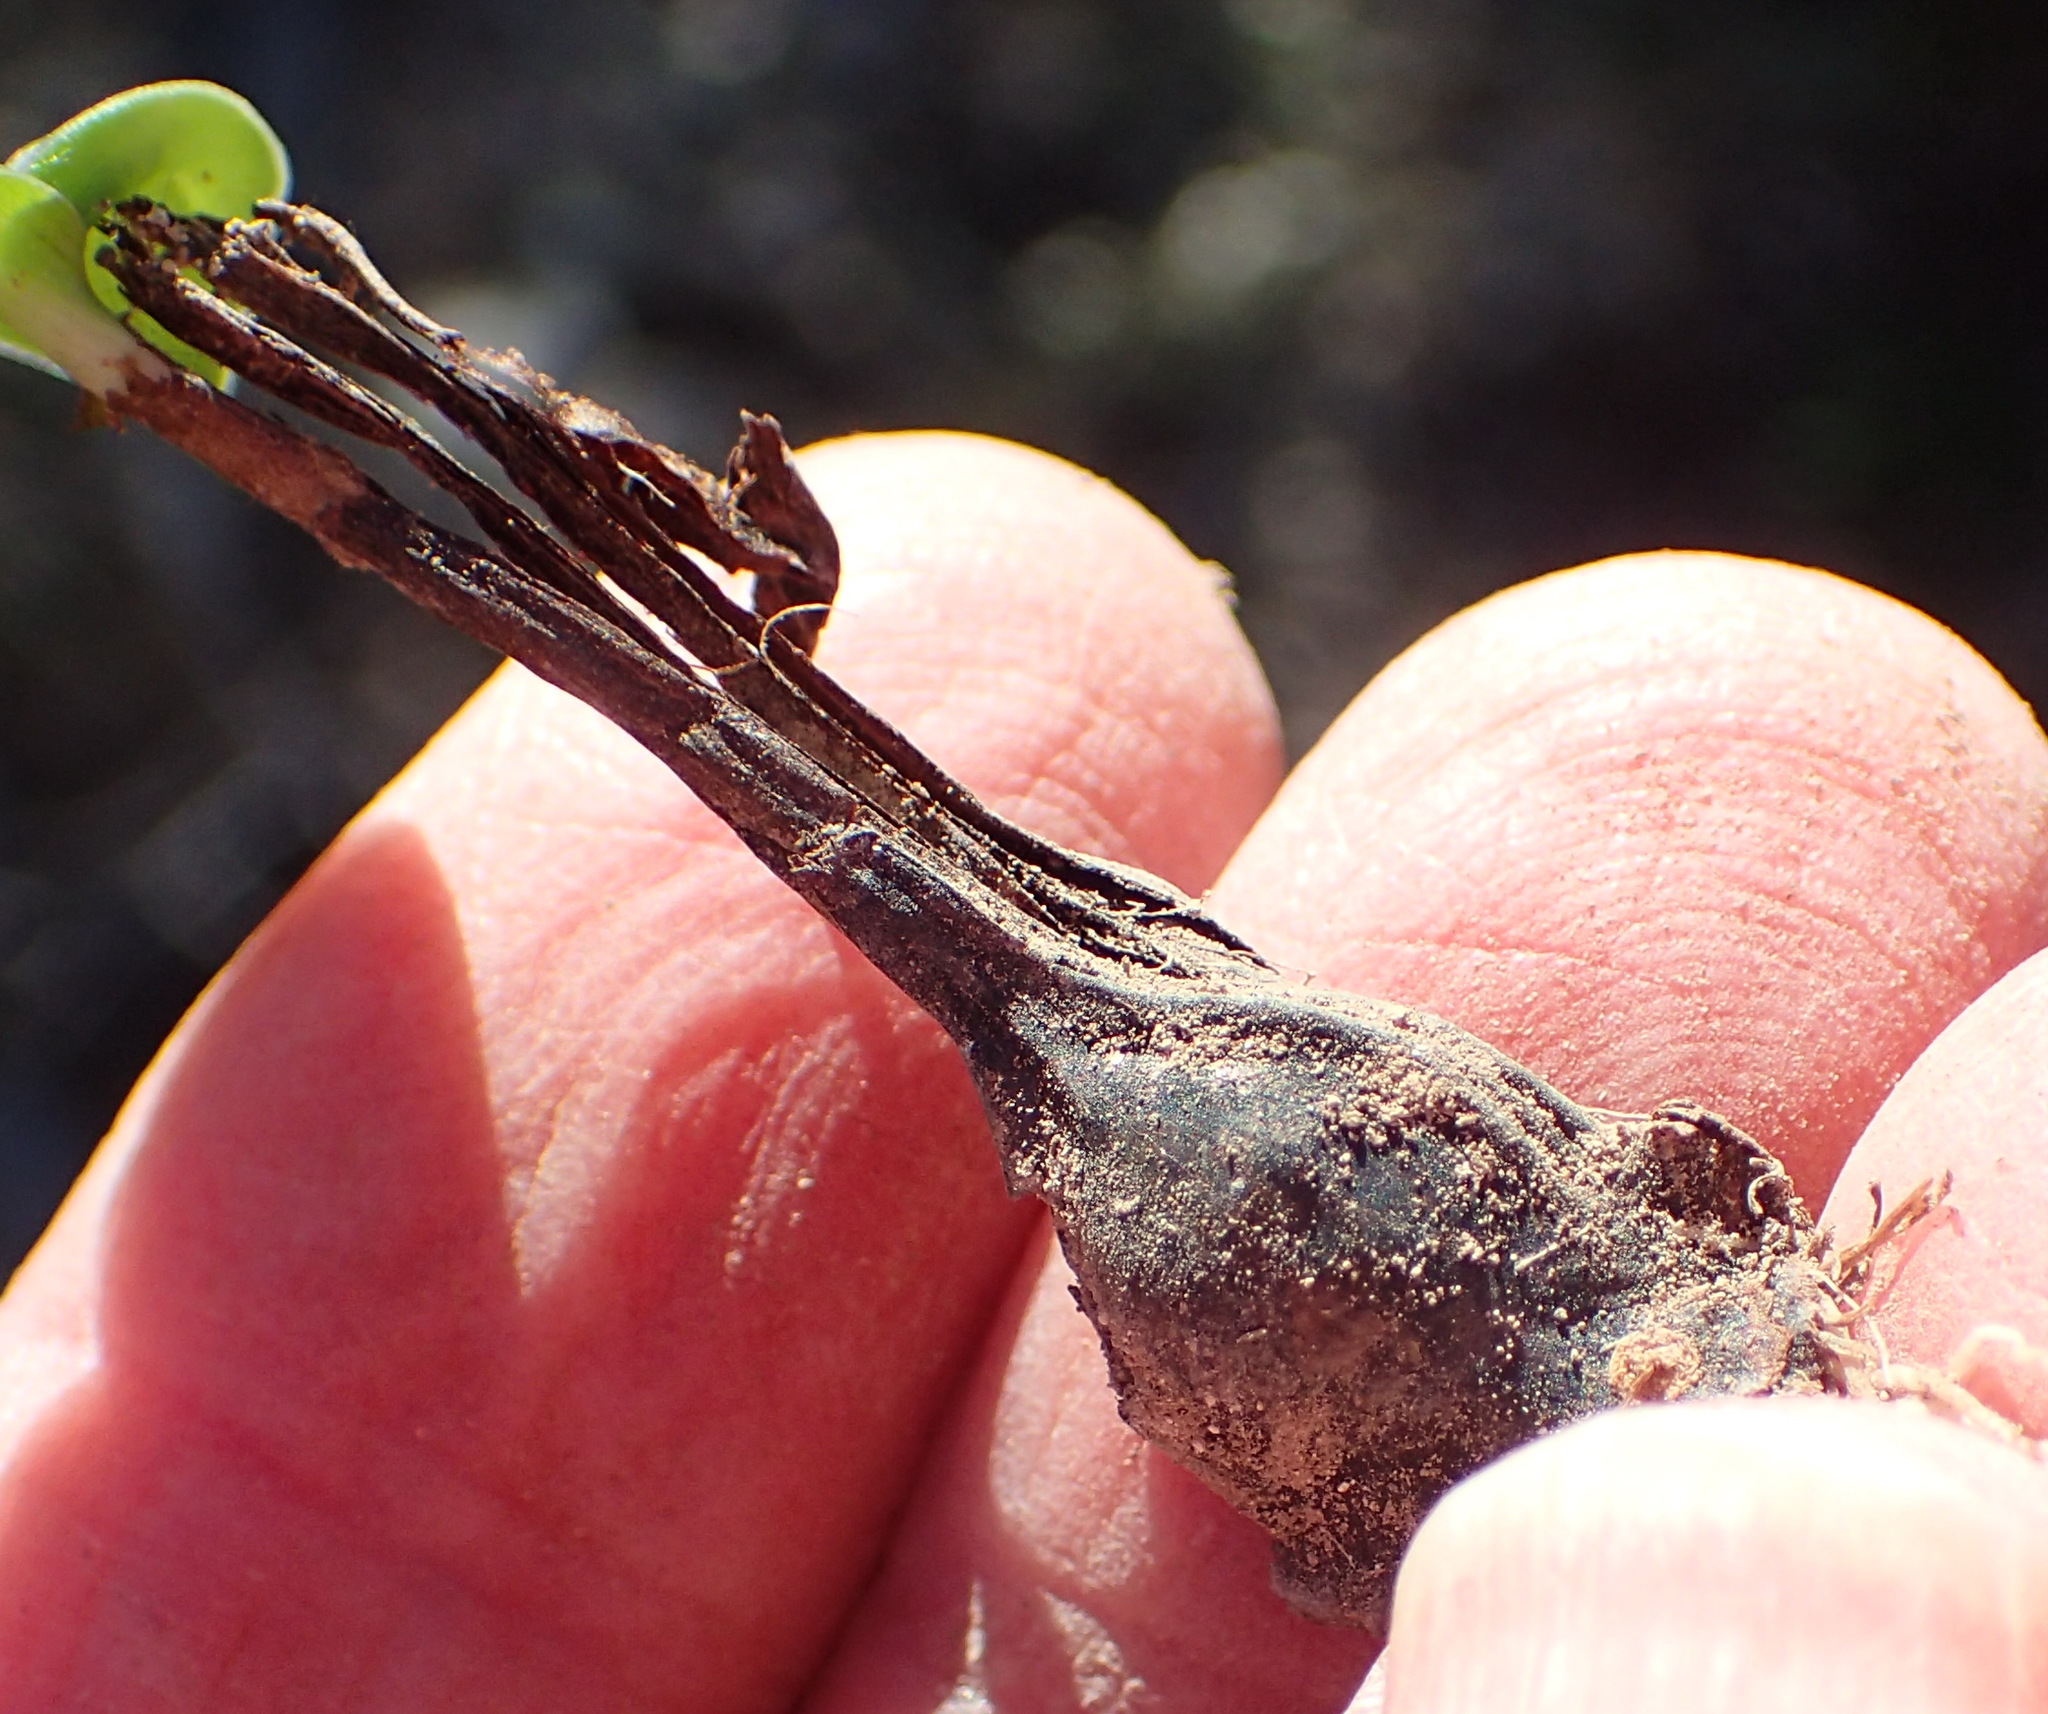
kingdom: Plantae
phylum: Tracheophyta
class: Liliopsida
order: Asparagales
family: Asparagaceae
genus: Drimia
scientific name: Drimia platyphylla
